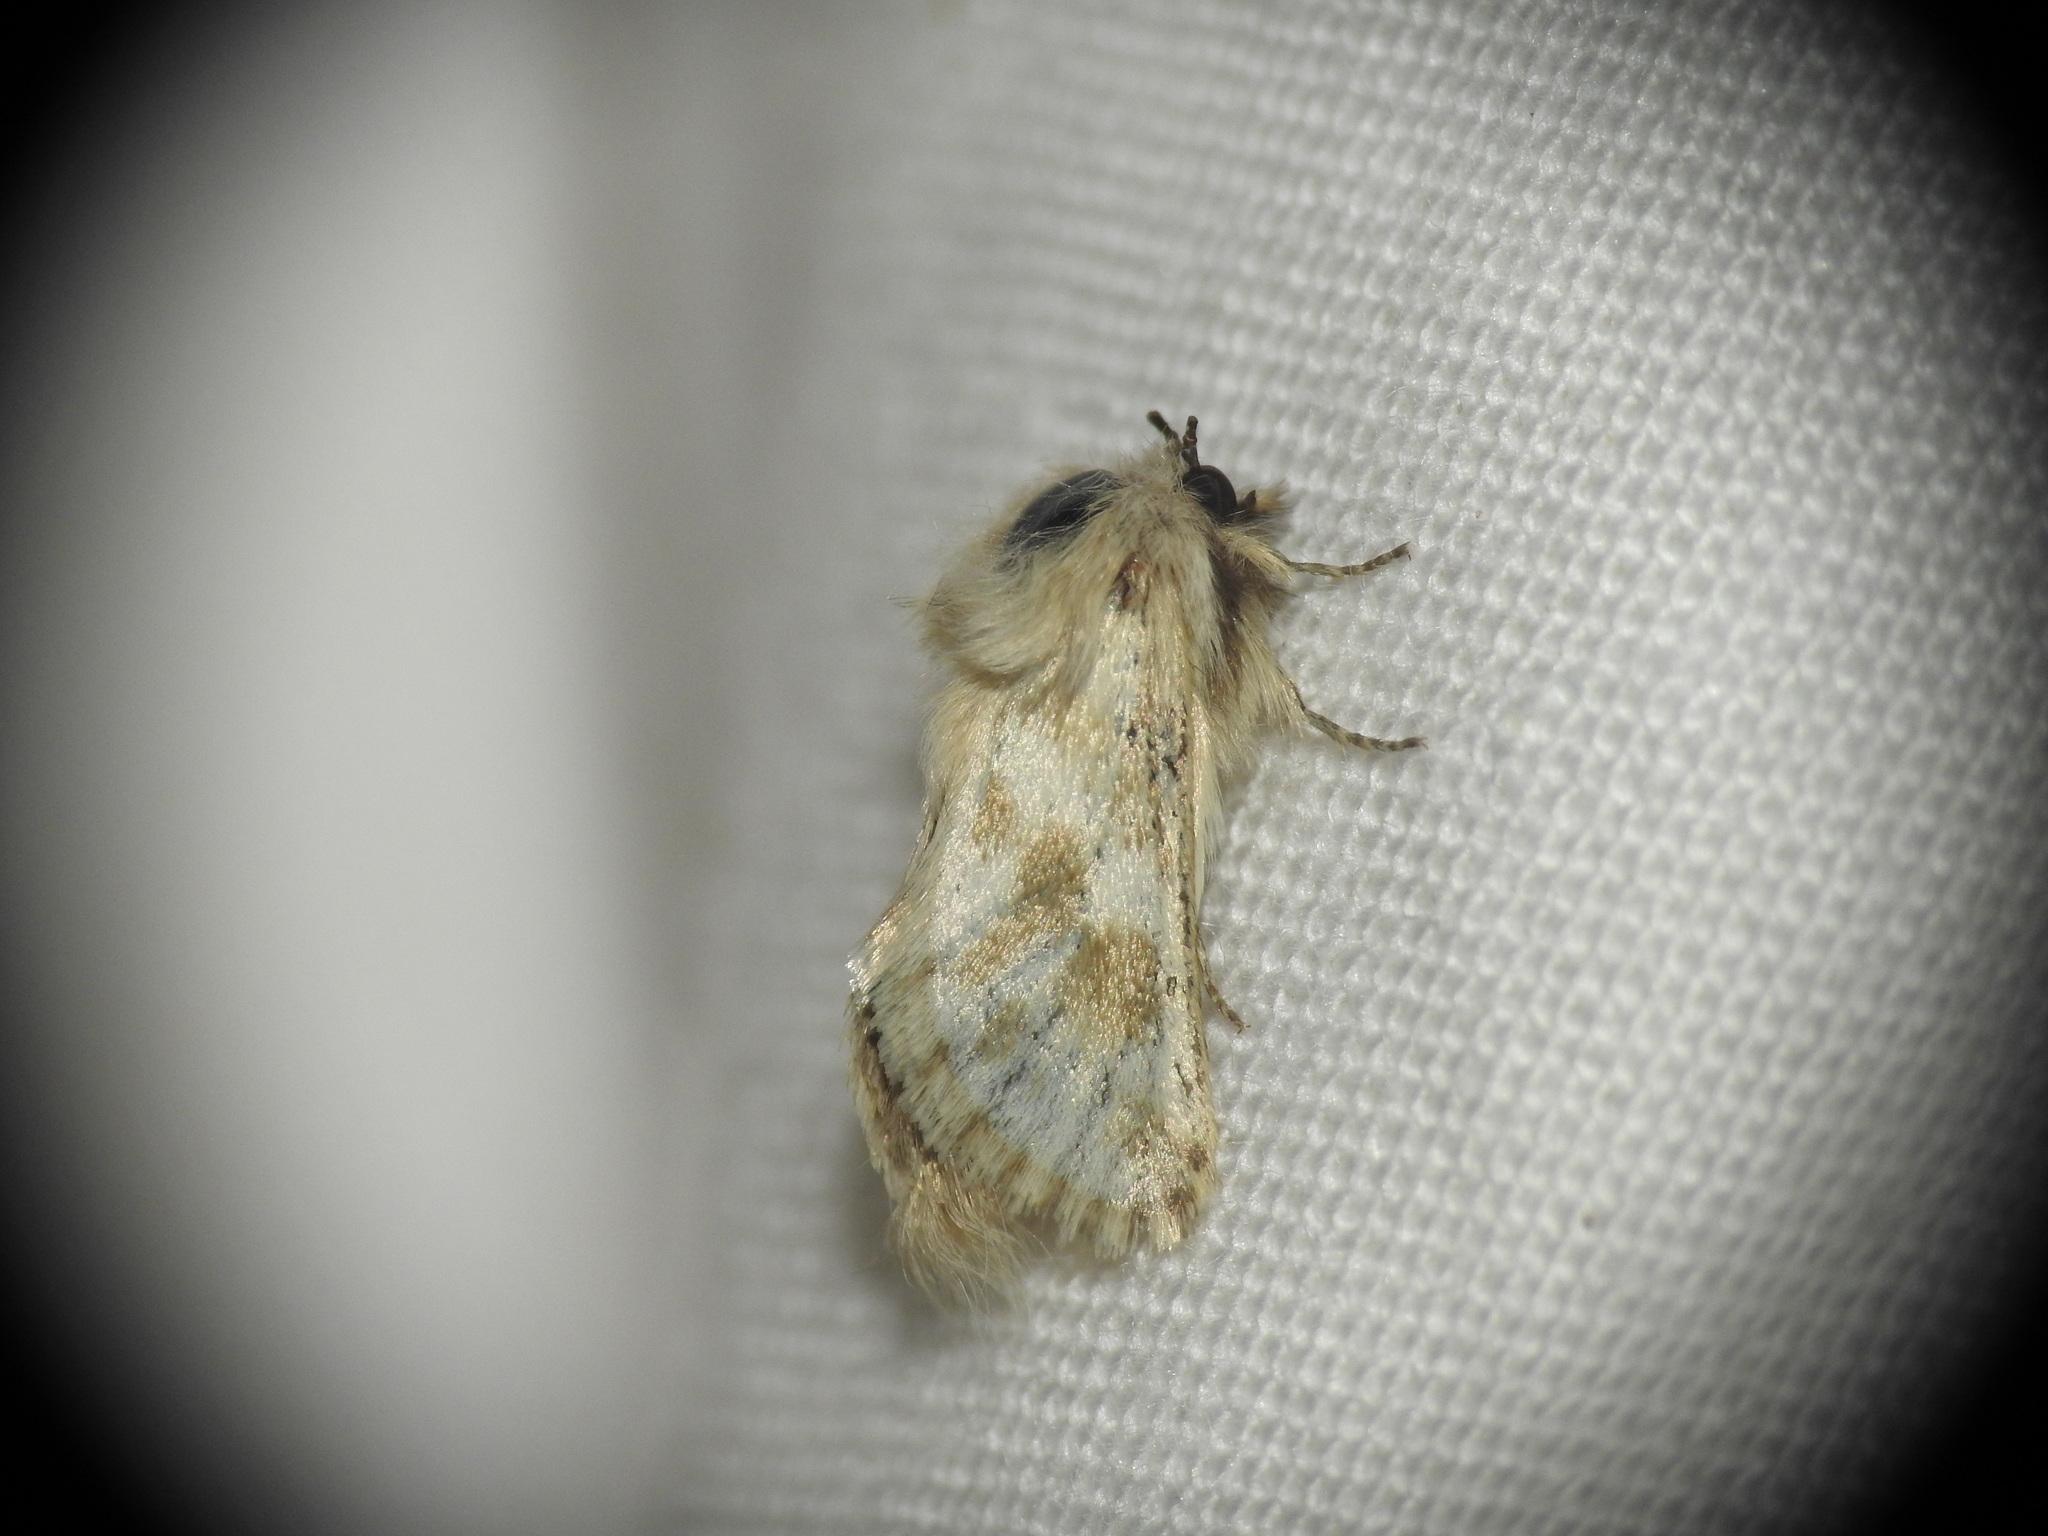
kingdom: Animalia
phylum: Arthropoda
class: Insecta
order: Lepidoptera
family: Cossidae
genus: Dyspessa
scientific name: Dyspessa ulula
